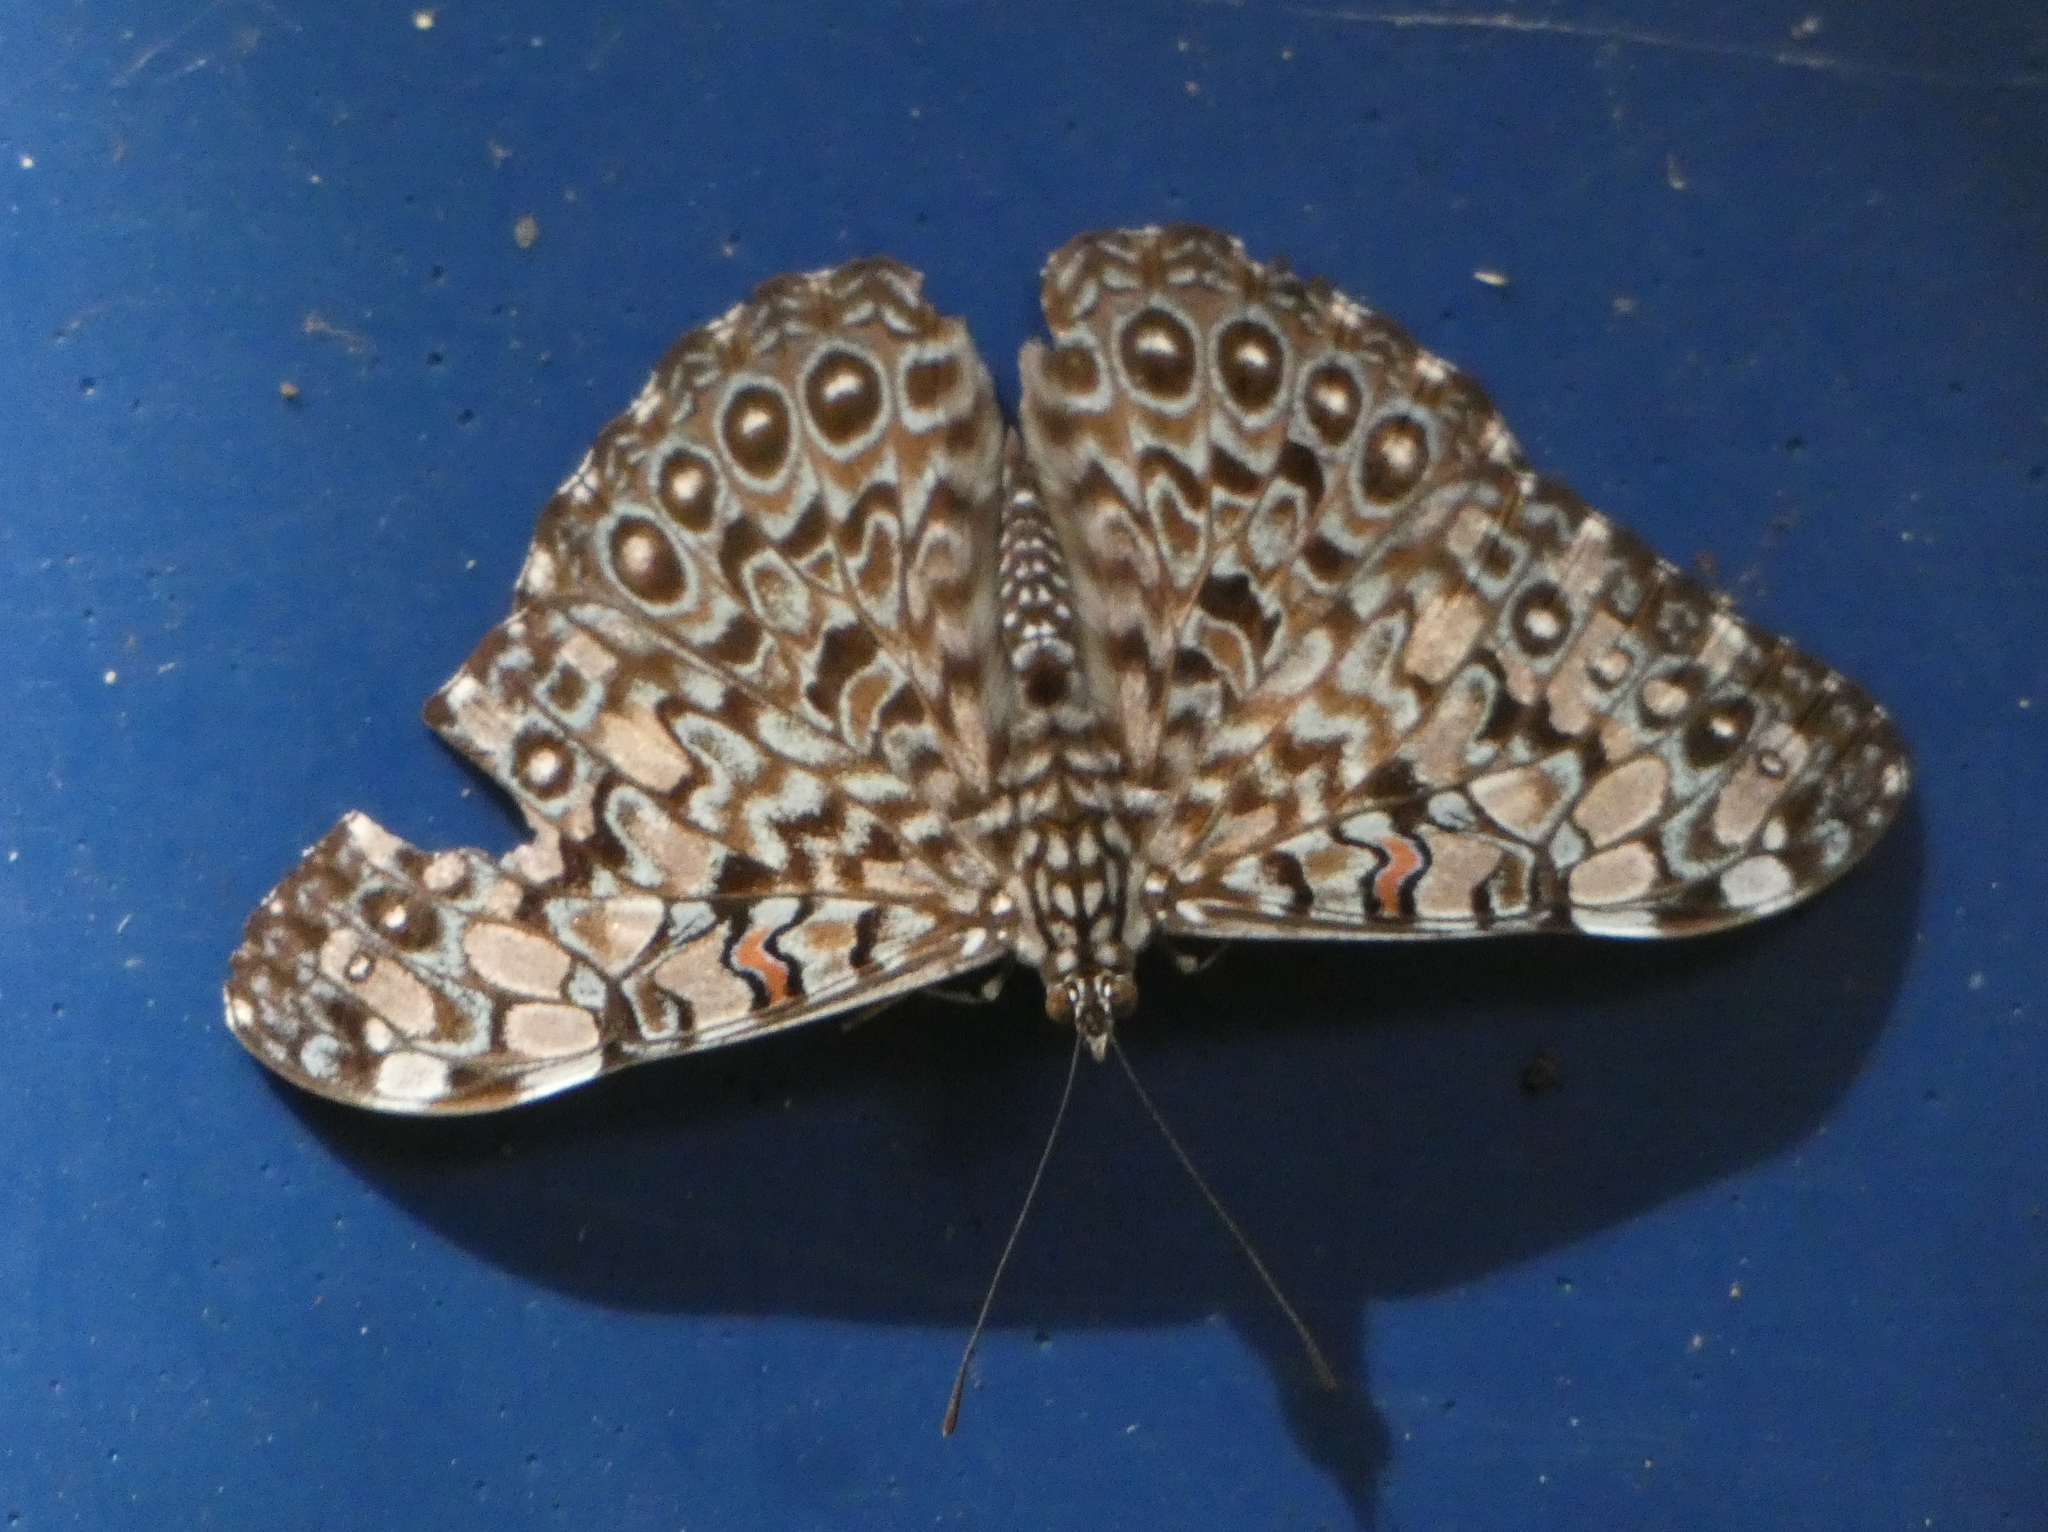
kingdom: Animalia
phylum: Arthropoda
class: Insecta
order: Lepidoptera
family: Nymphalidae
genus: Hamadryas
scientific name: Hamadryas feronia
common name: Variable cracker
